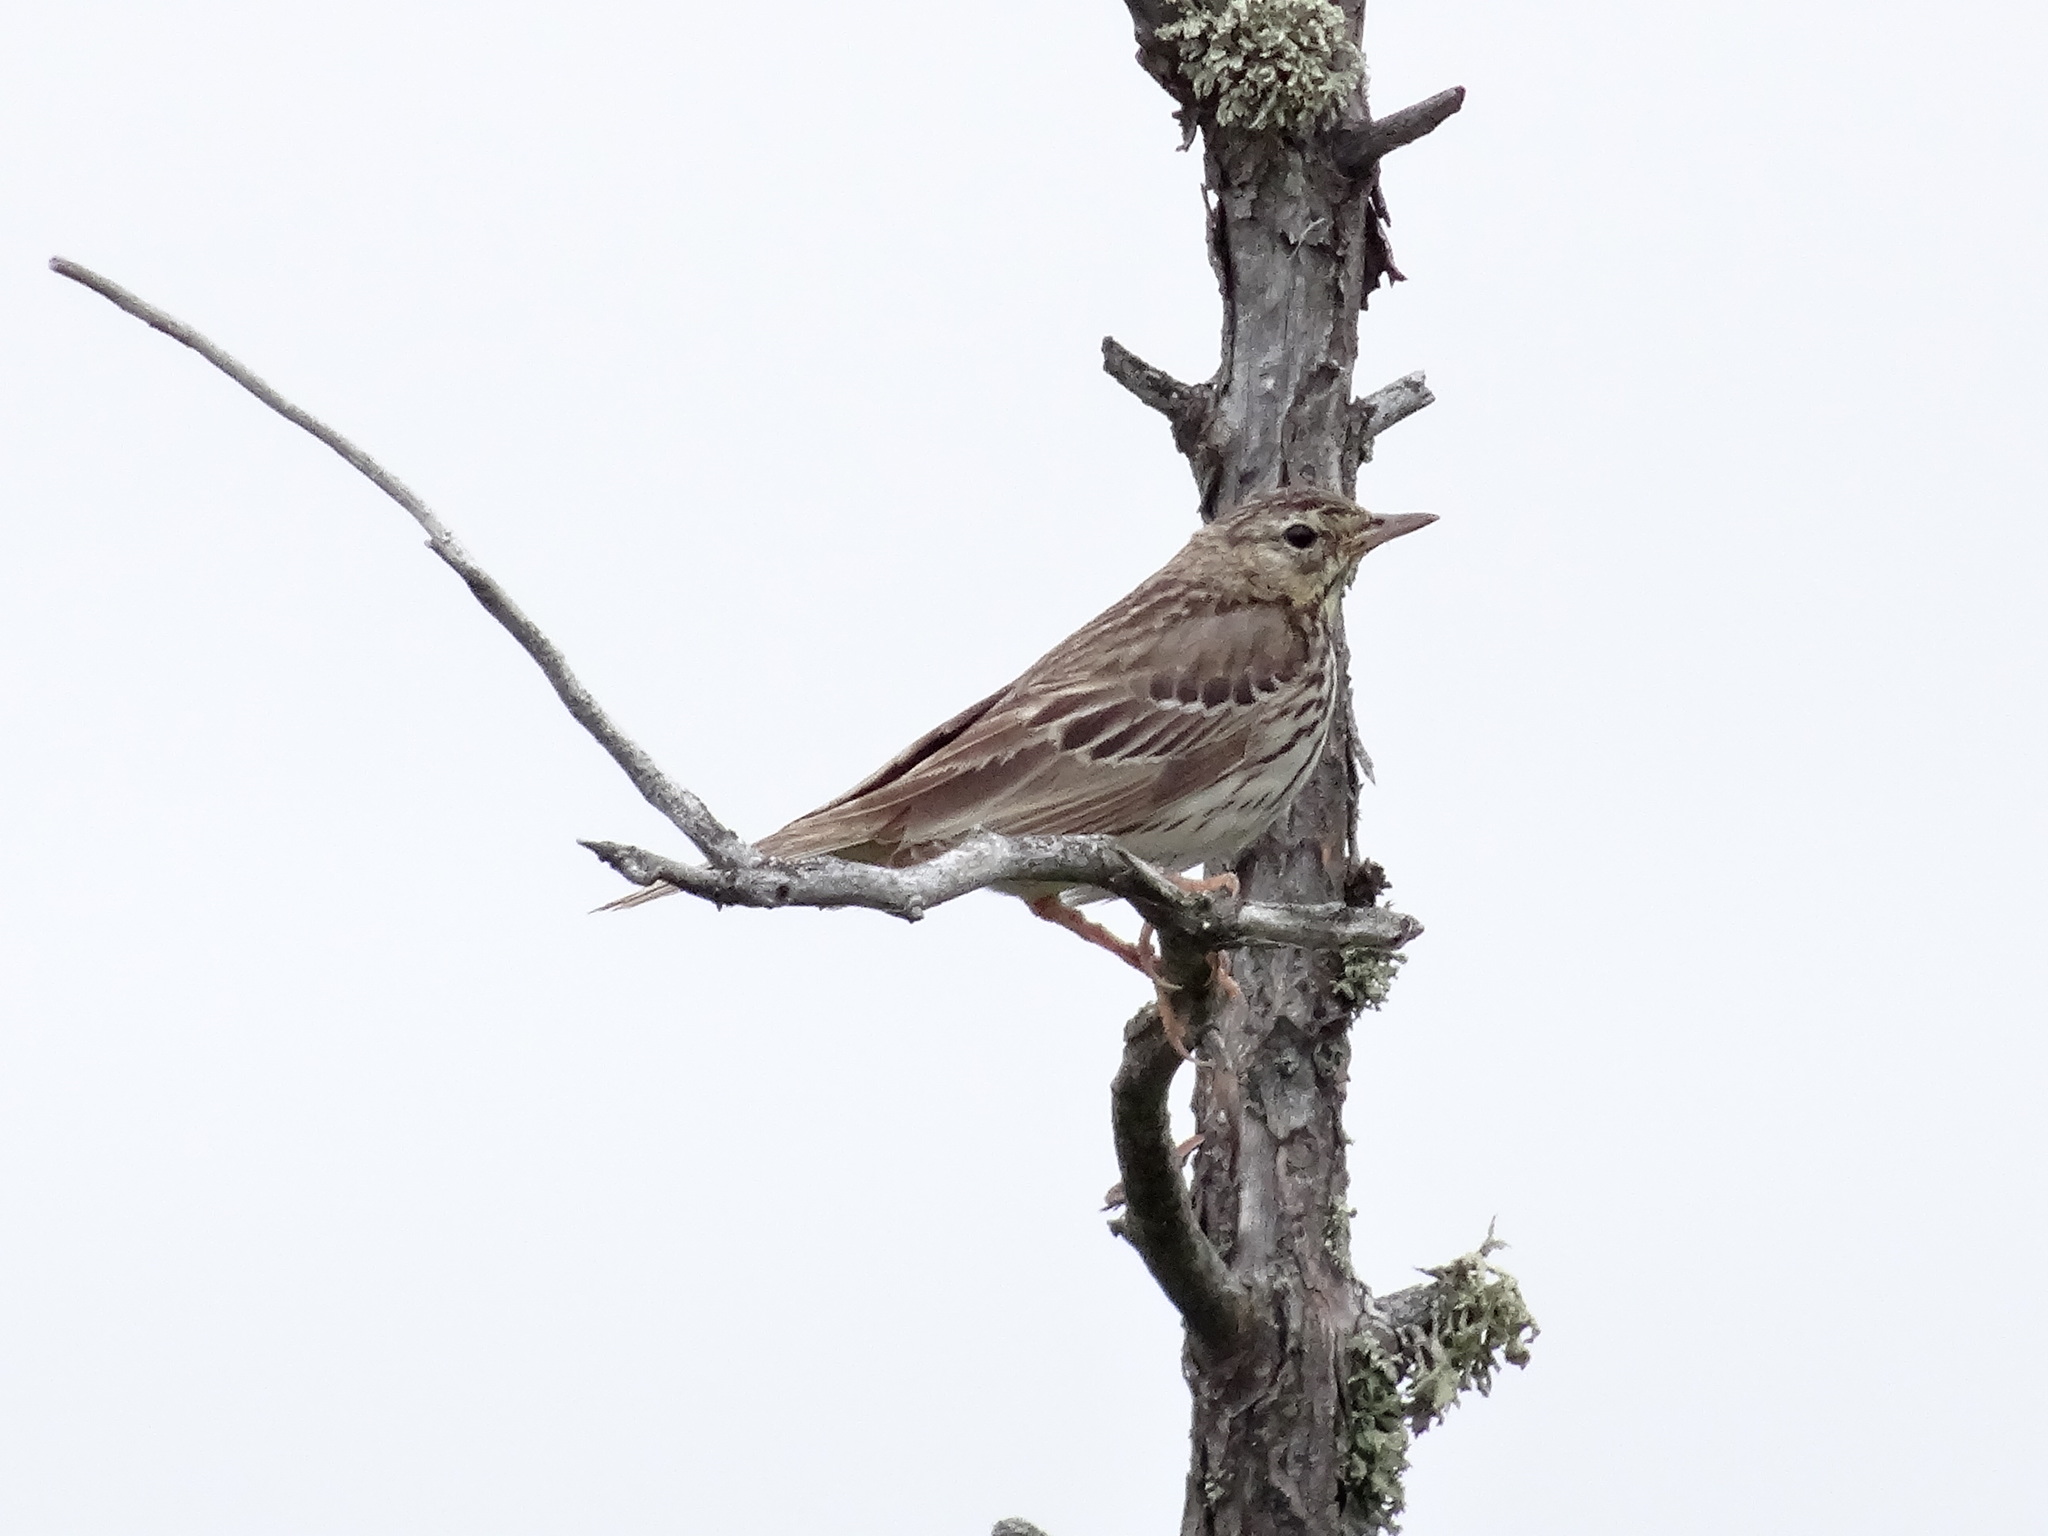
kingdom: Animalia
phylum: Chordata
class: Aves
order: Passeriformes
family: Motacillidae
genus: Anthus
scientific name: Anthus trivialis
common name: Tree pipit
